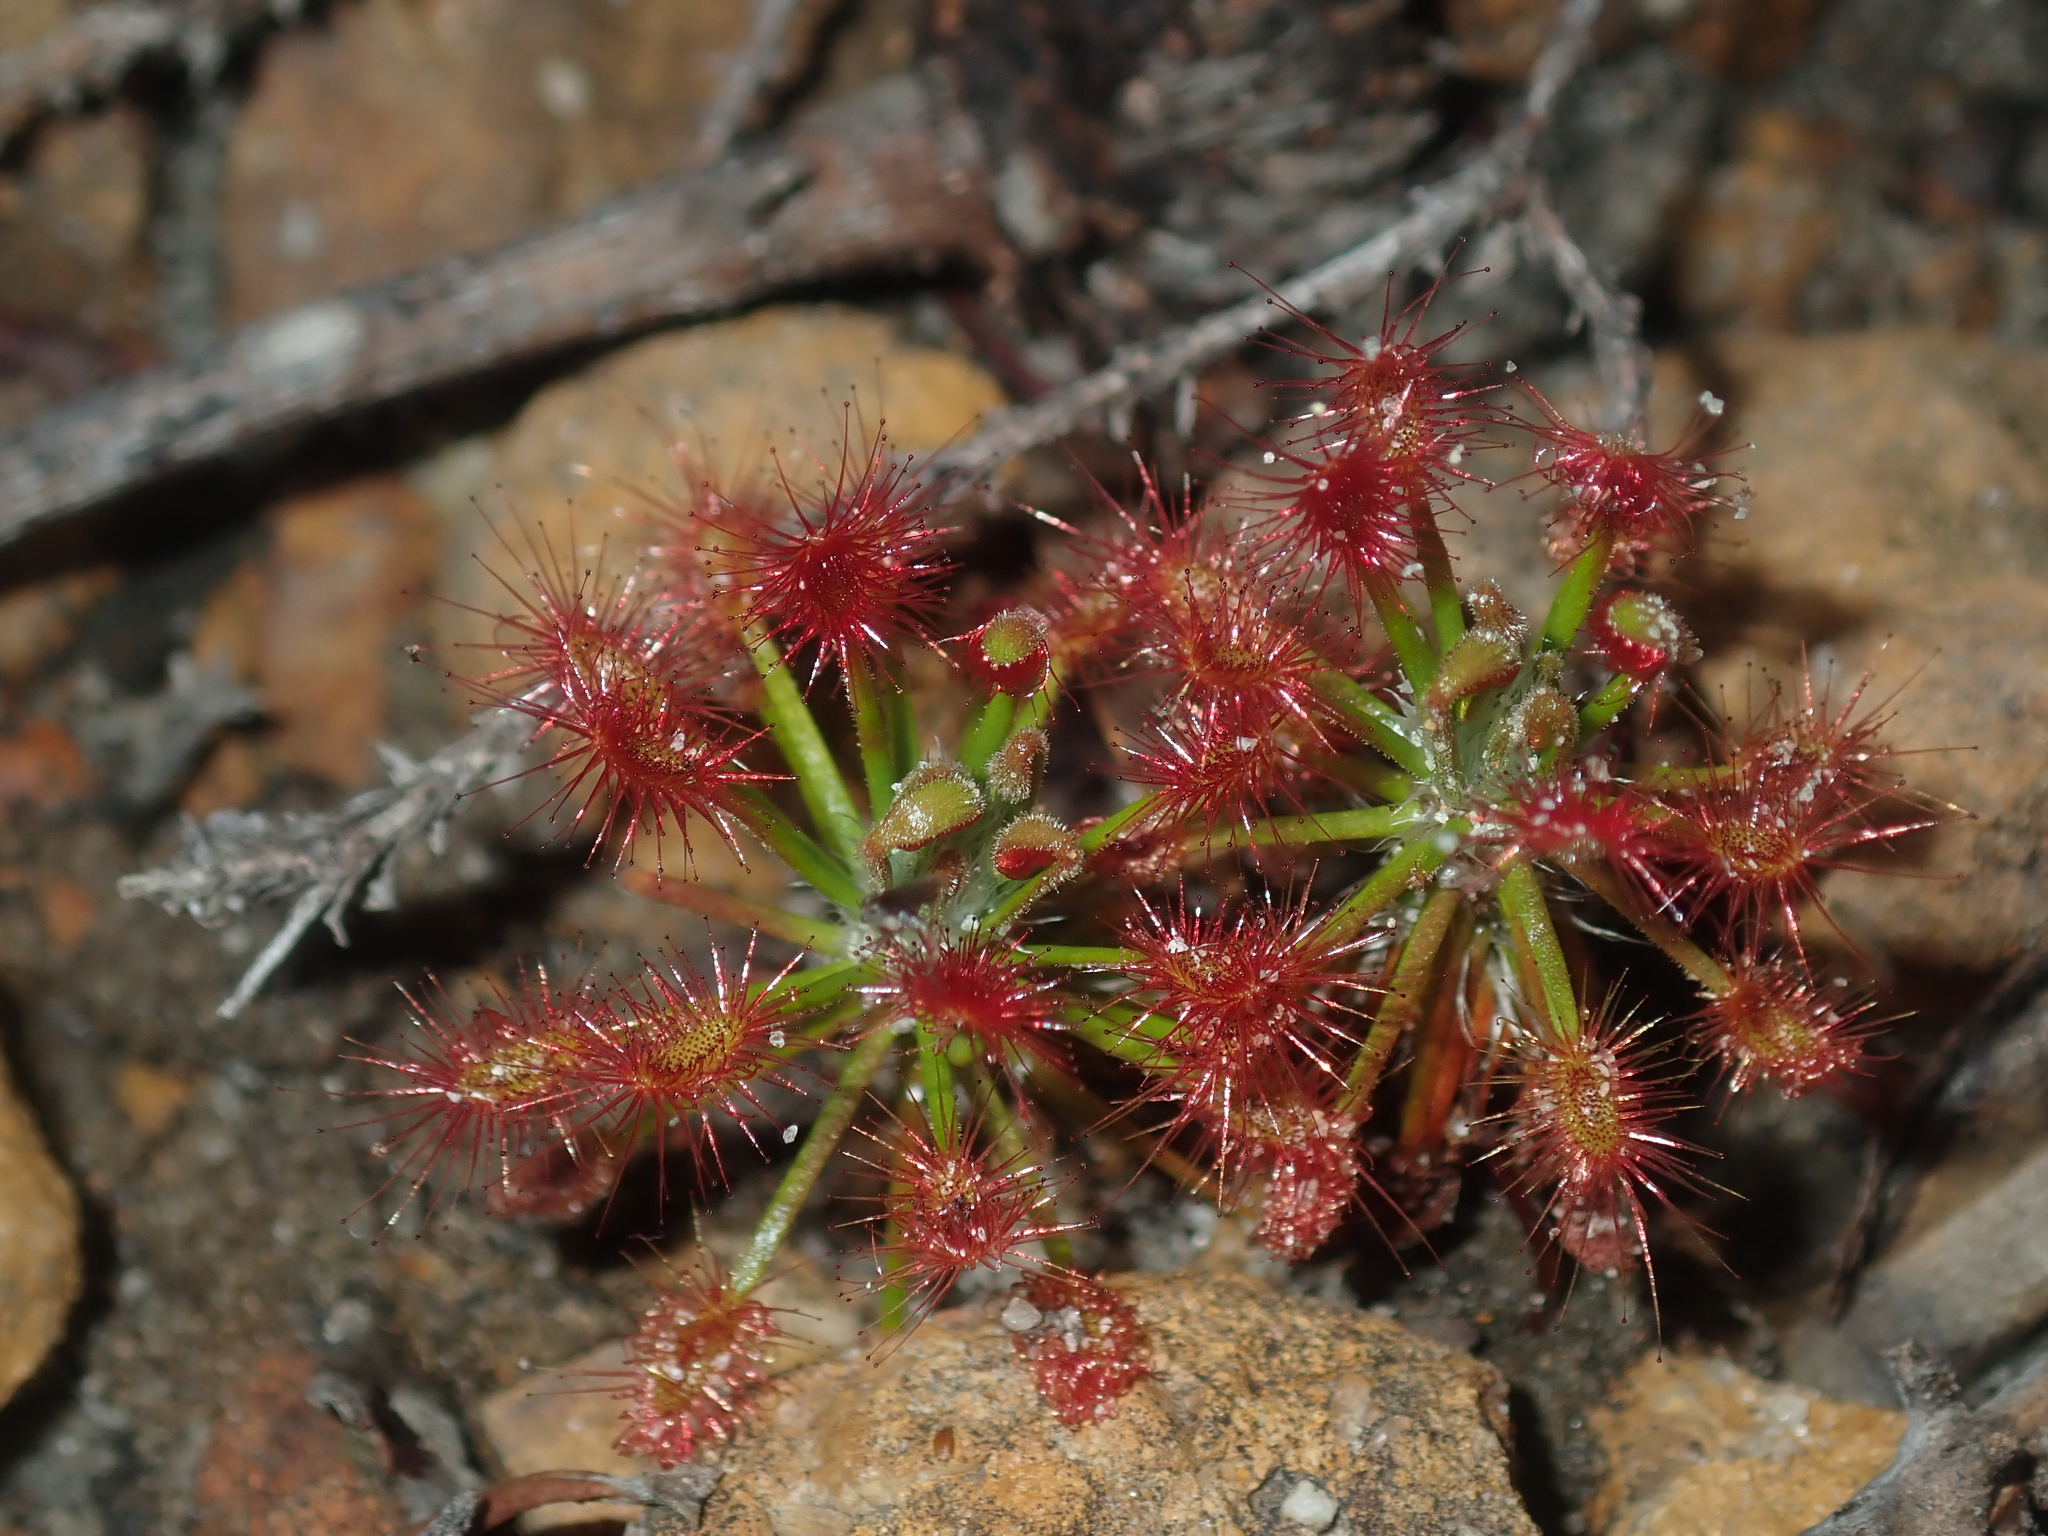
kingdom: Plantae
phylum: Tracheophyta
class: Magnoliopsida
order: Caryophyllales
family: Droseraceae
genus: Drosera
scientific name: Drosera barbigera
